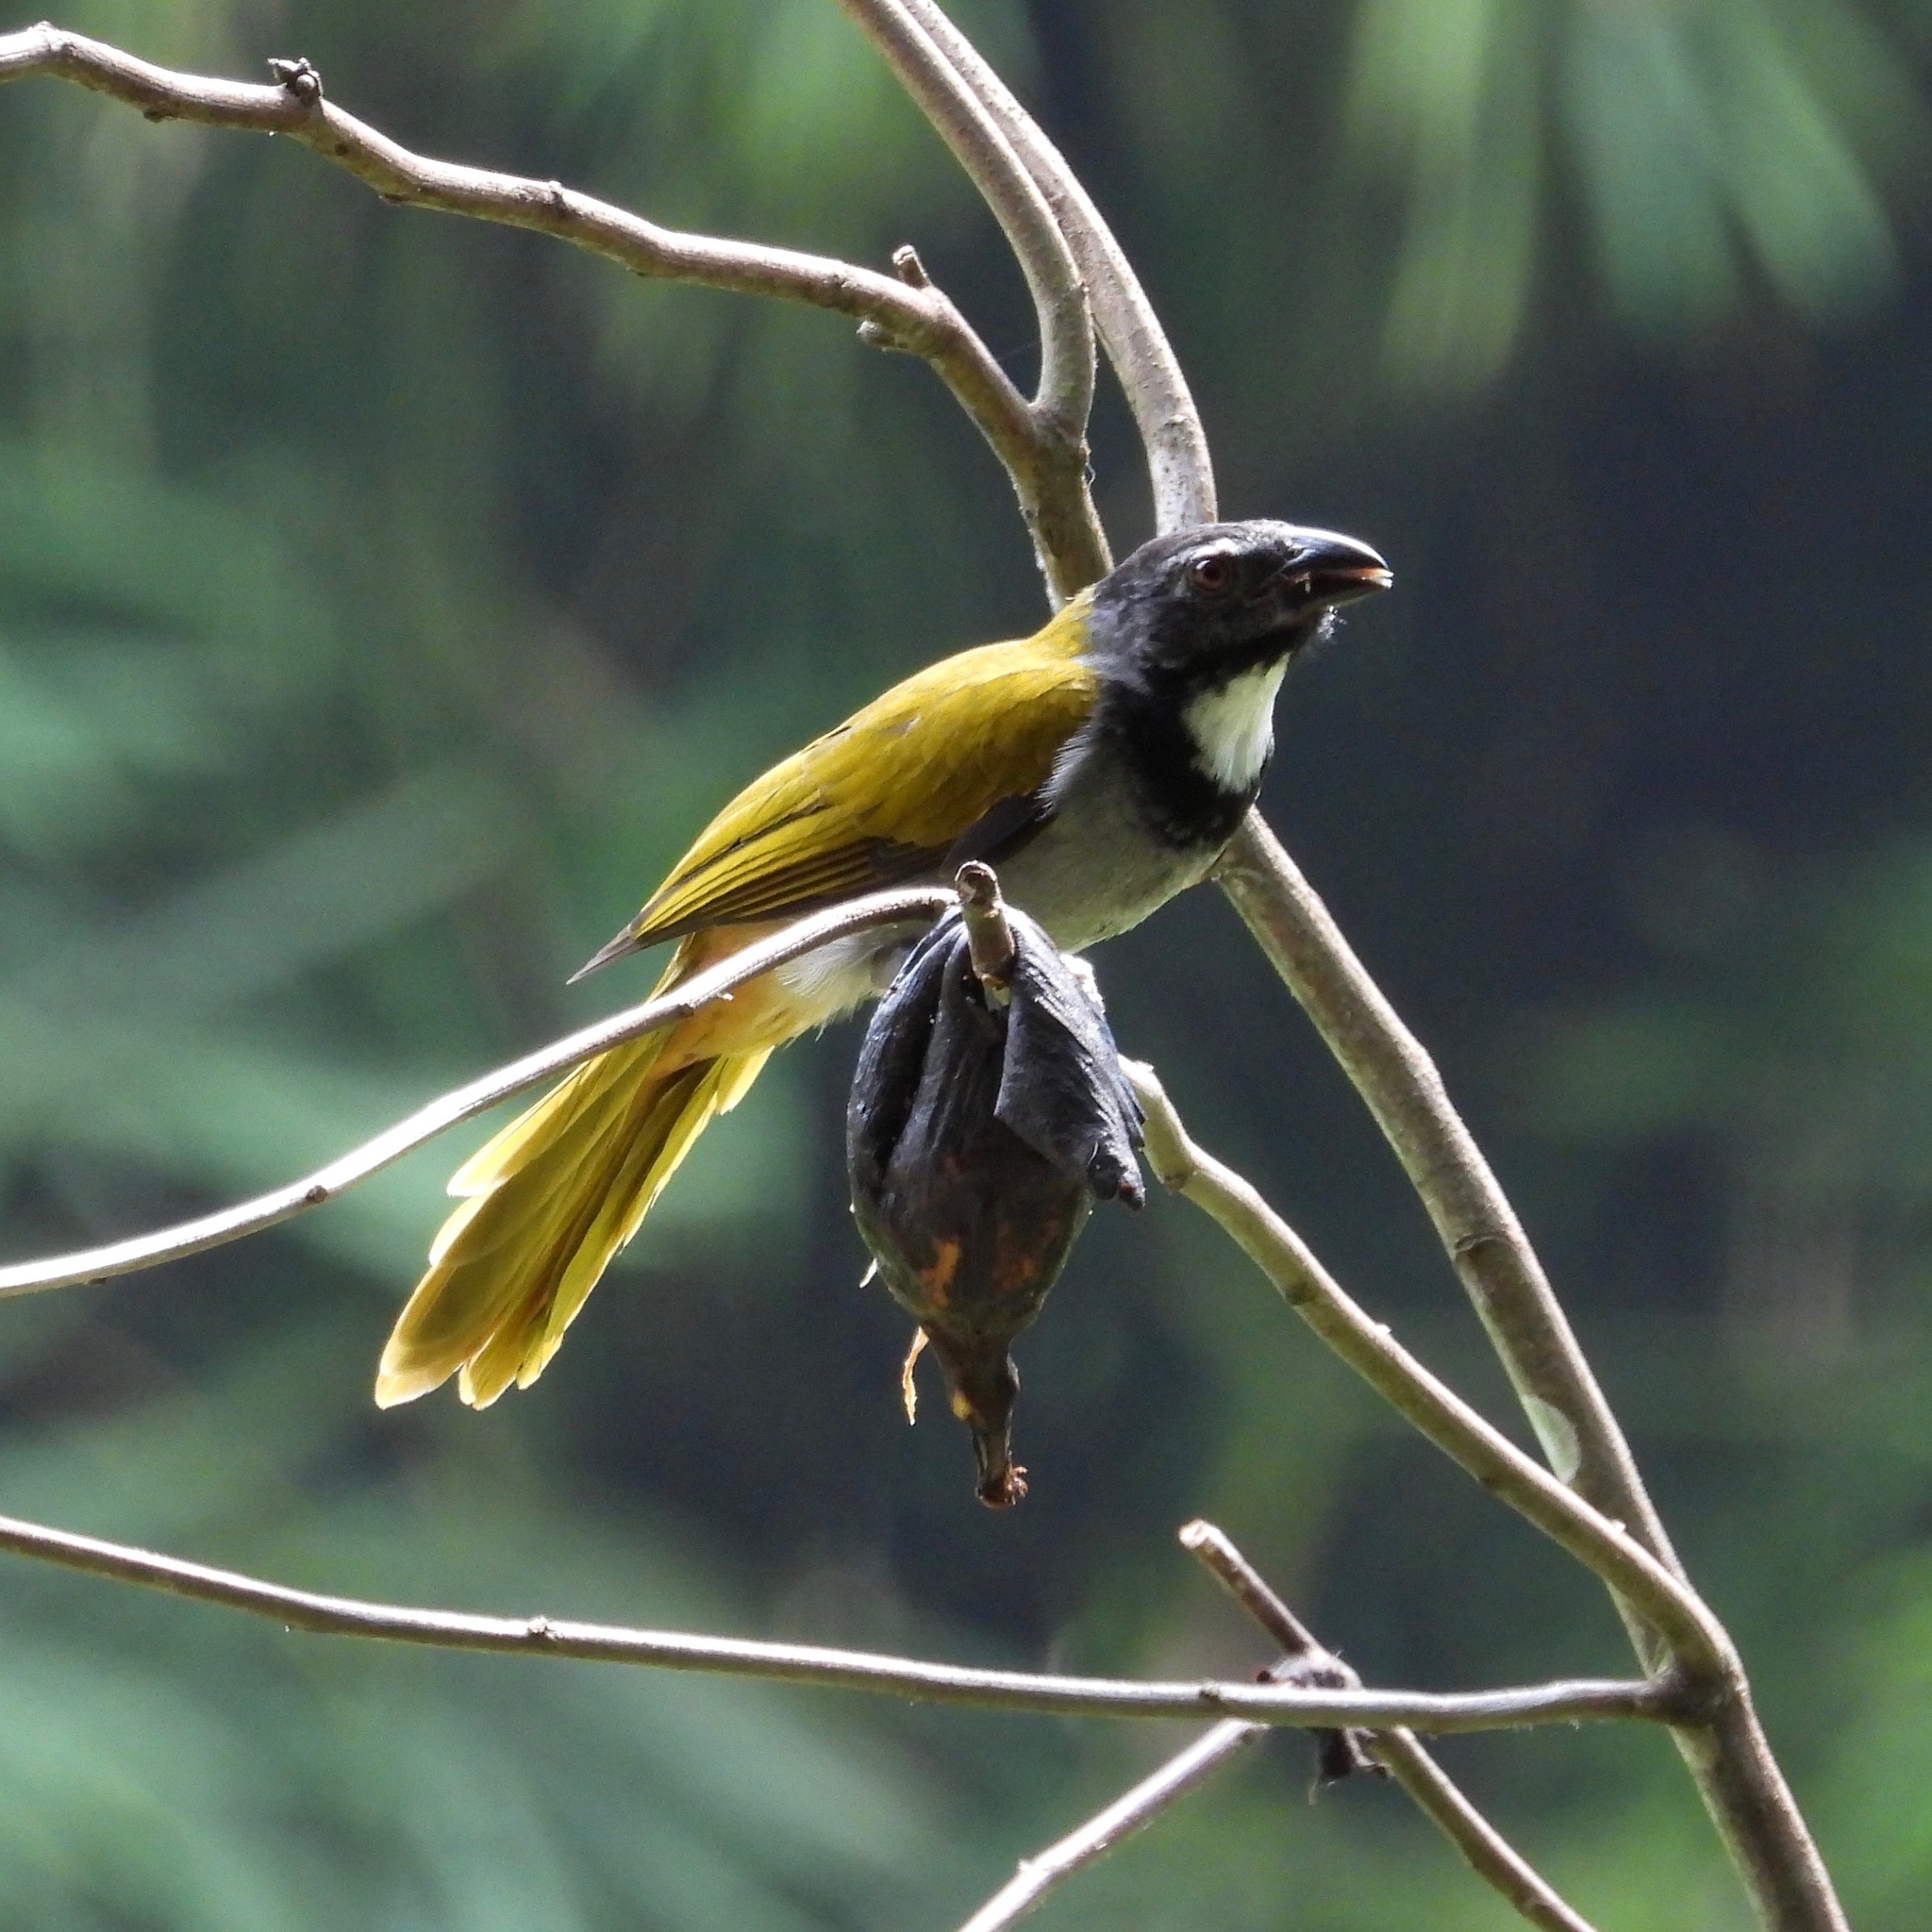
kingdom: Animalia
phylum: Chordata
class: Aves
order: Passeriformes
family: Thraupidae
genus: Saltator
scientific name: Saltator atriceps
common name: Black-headed saltator
